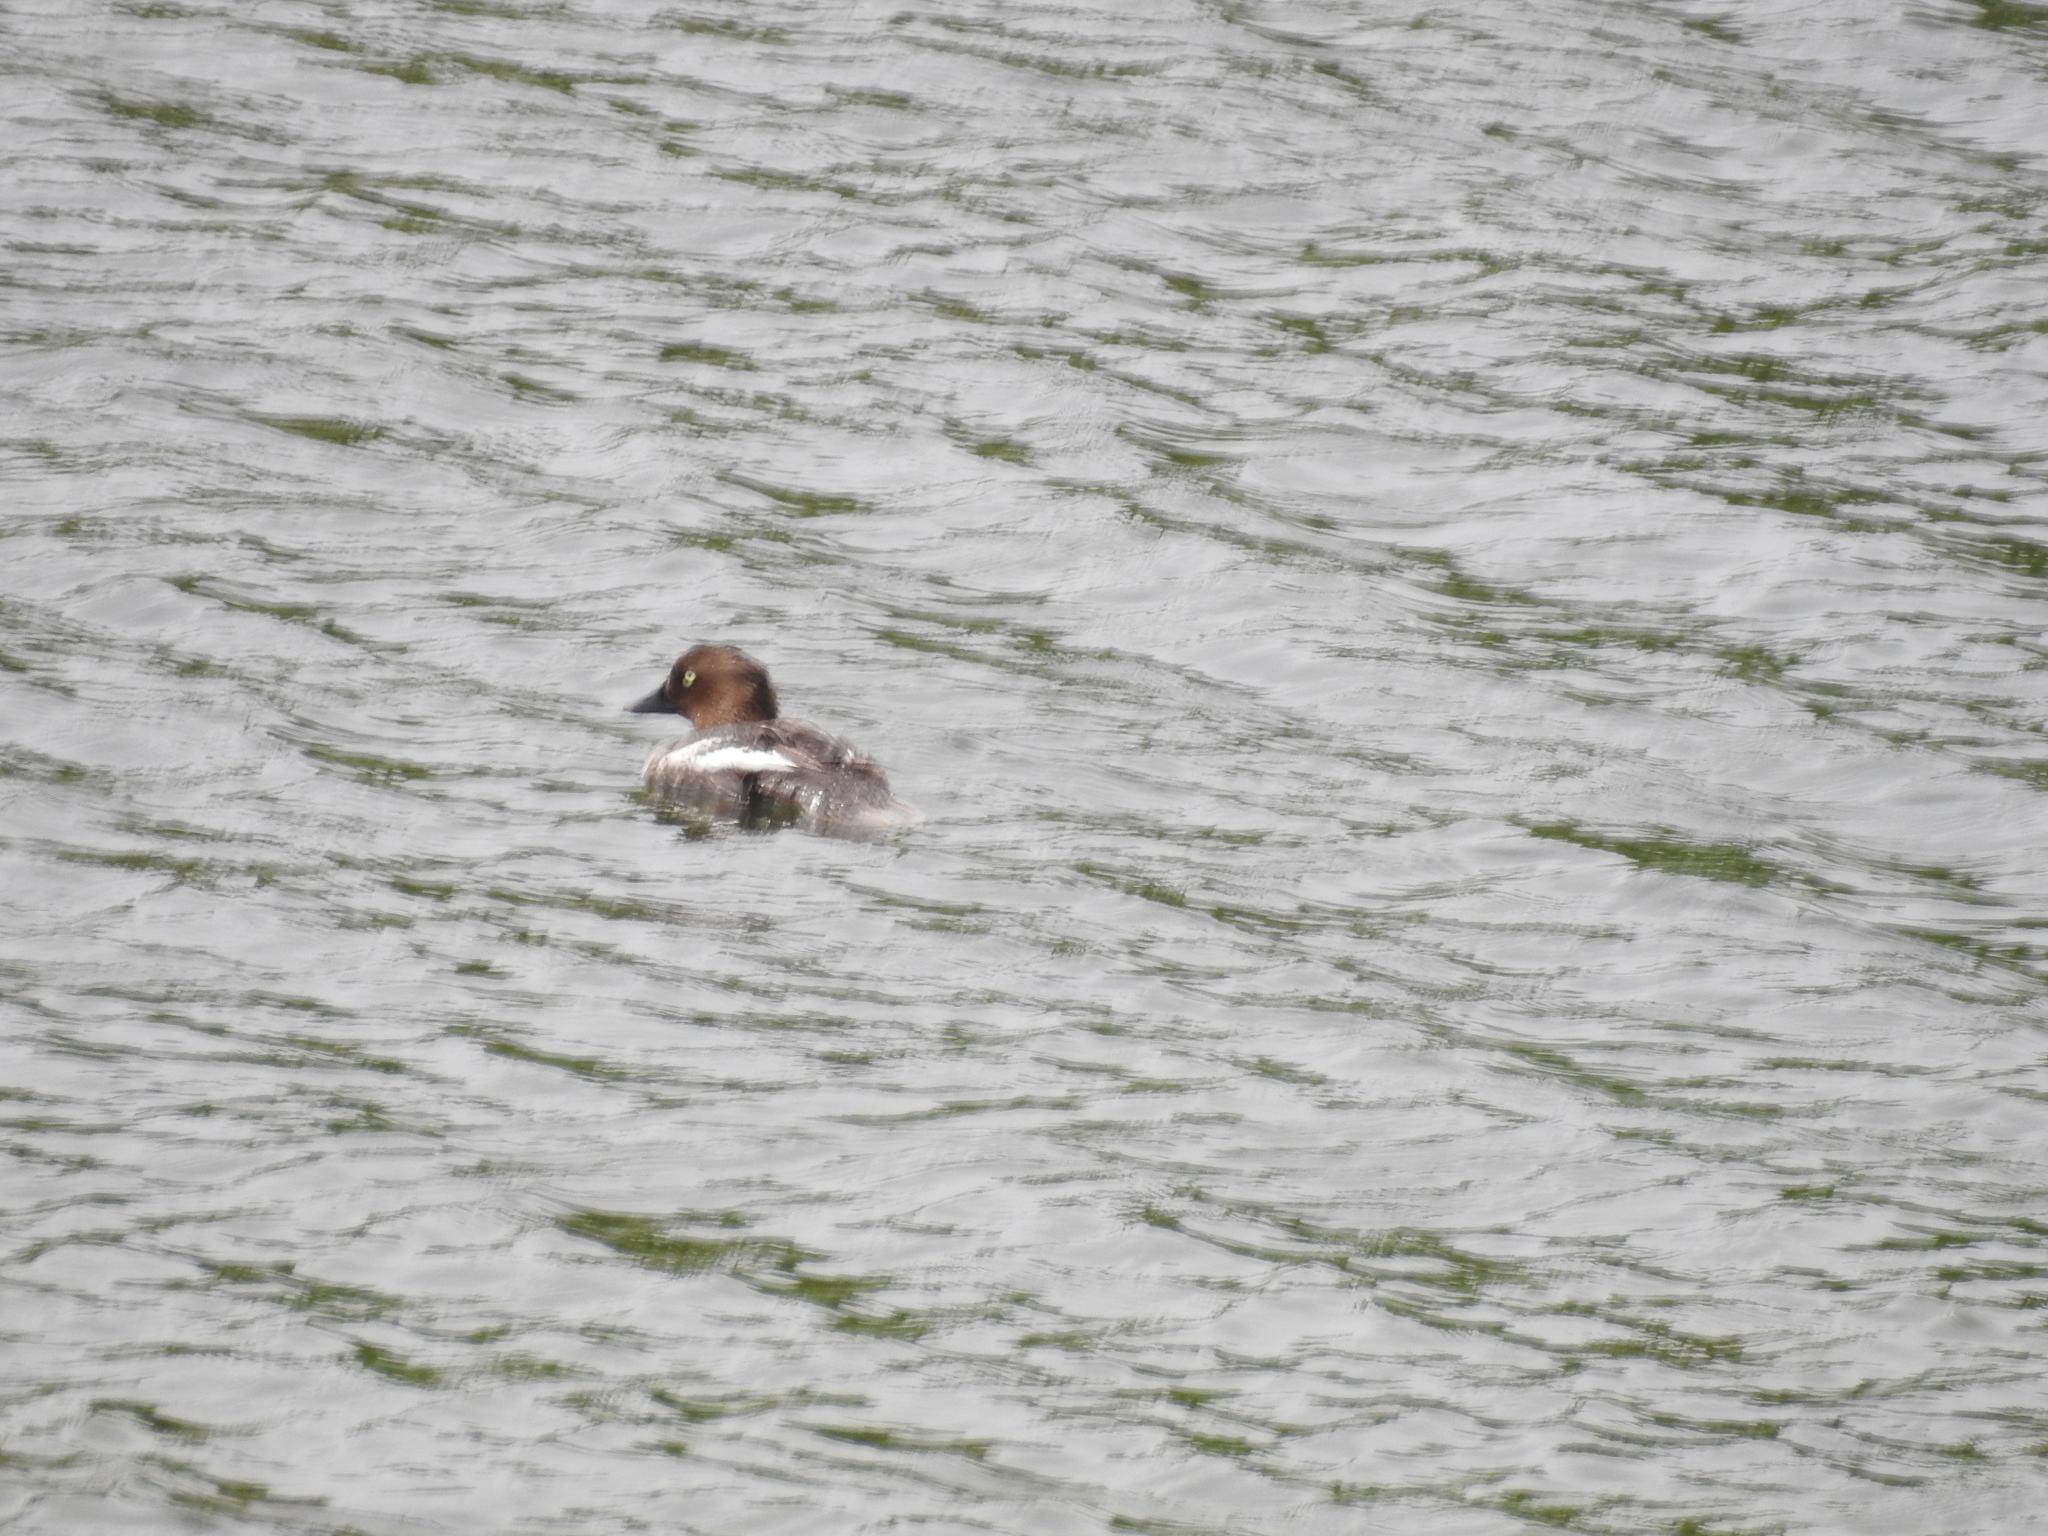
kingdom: Animalia
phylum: Chordata
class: Aves
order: Anseriformes
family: Anatidae
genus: Bucephala
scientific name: Bucephala clangula
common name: Common goldeneye
